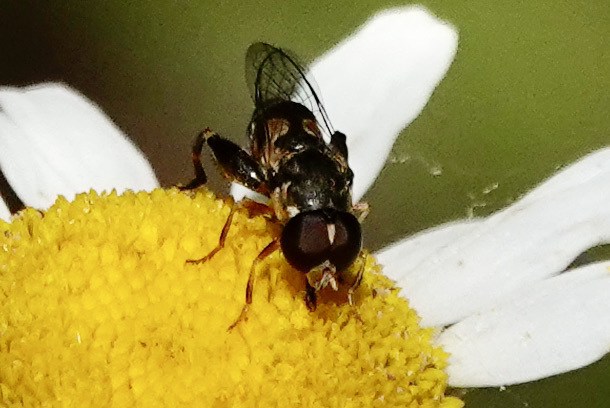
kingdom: Animalia
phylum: Arthropoda
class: Insecta
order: Diptera
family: Syrphidae
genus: Syritta
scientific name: Syritta pipiens
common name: Hover fly
